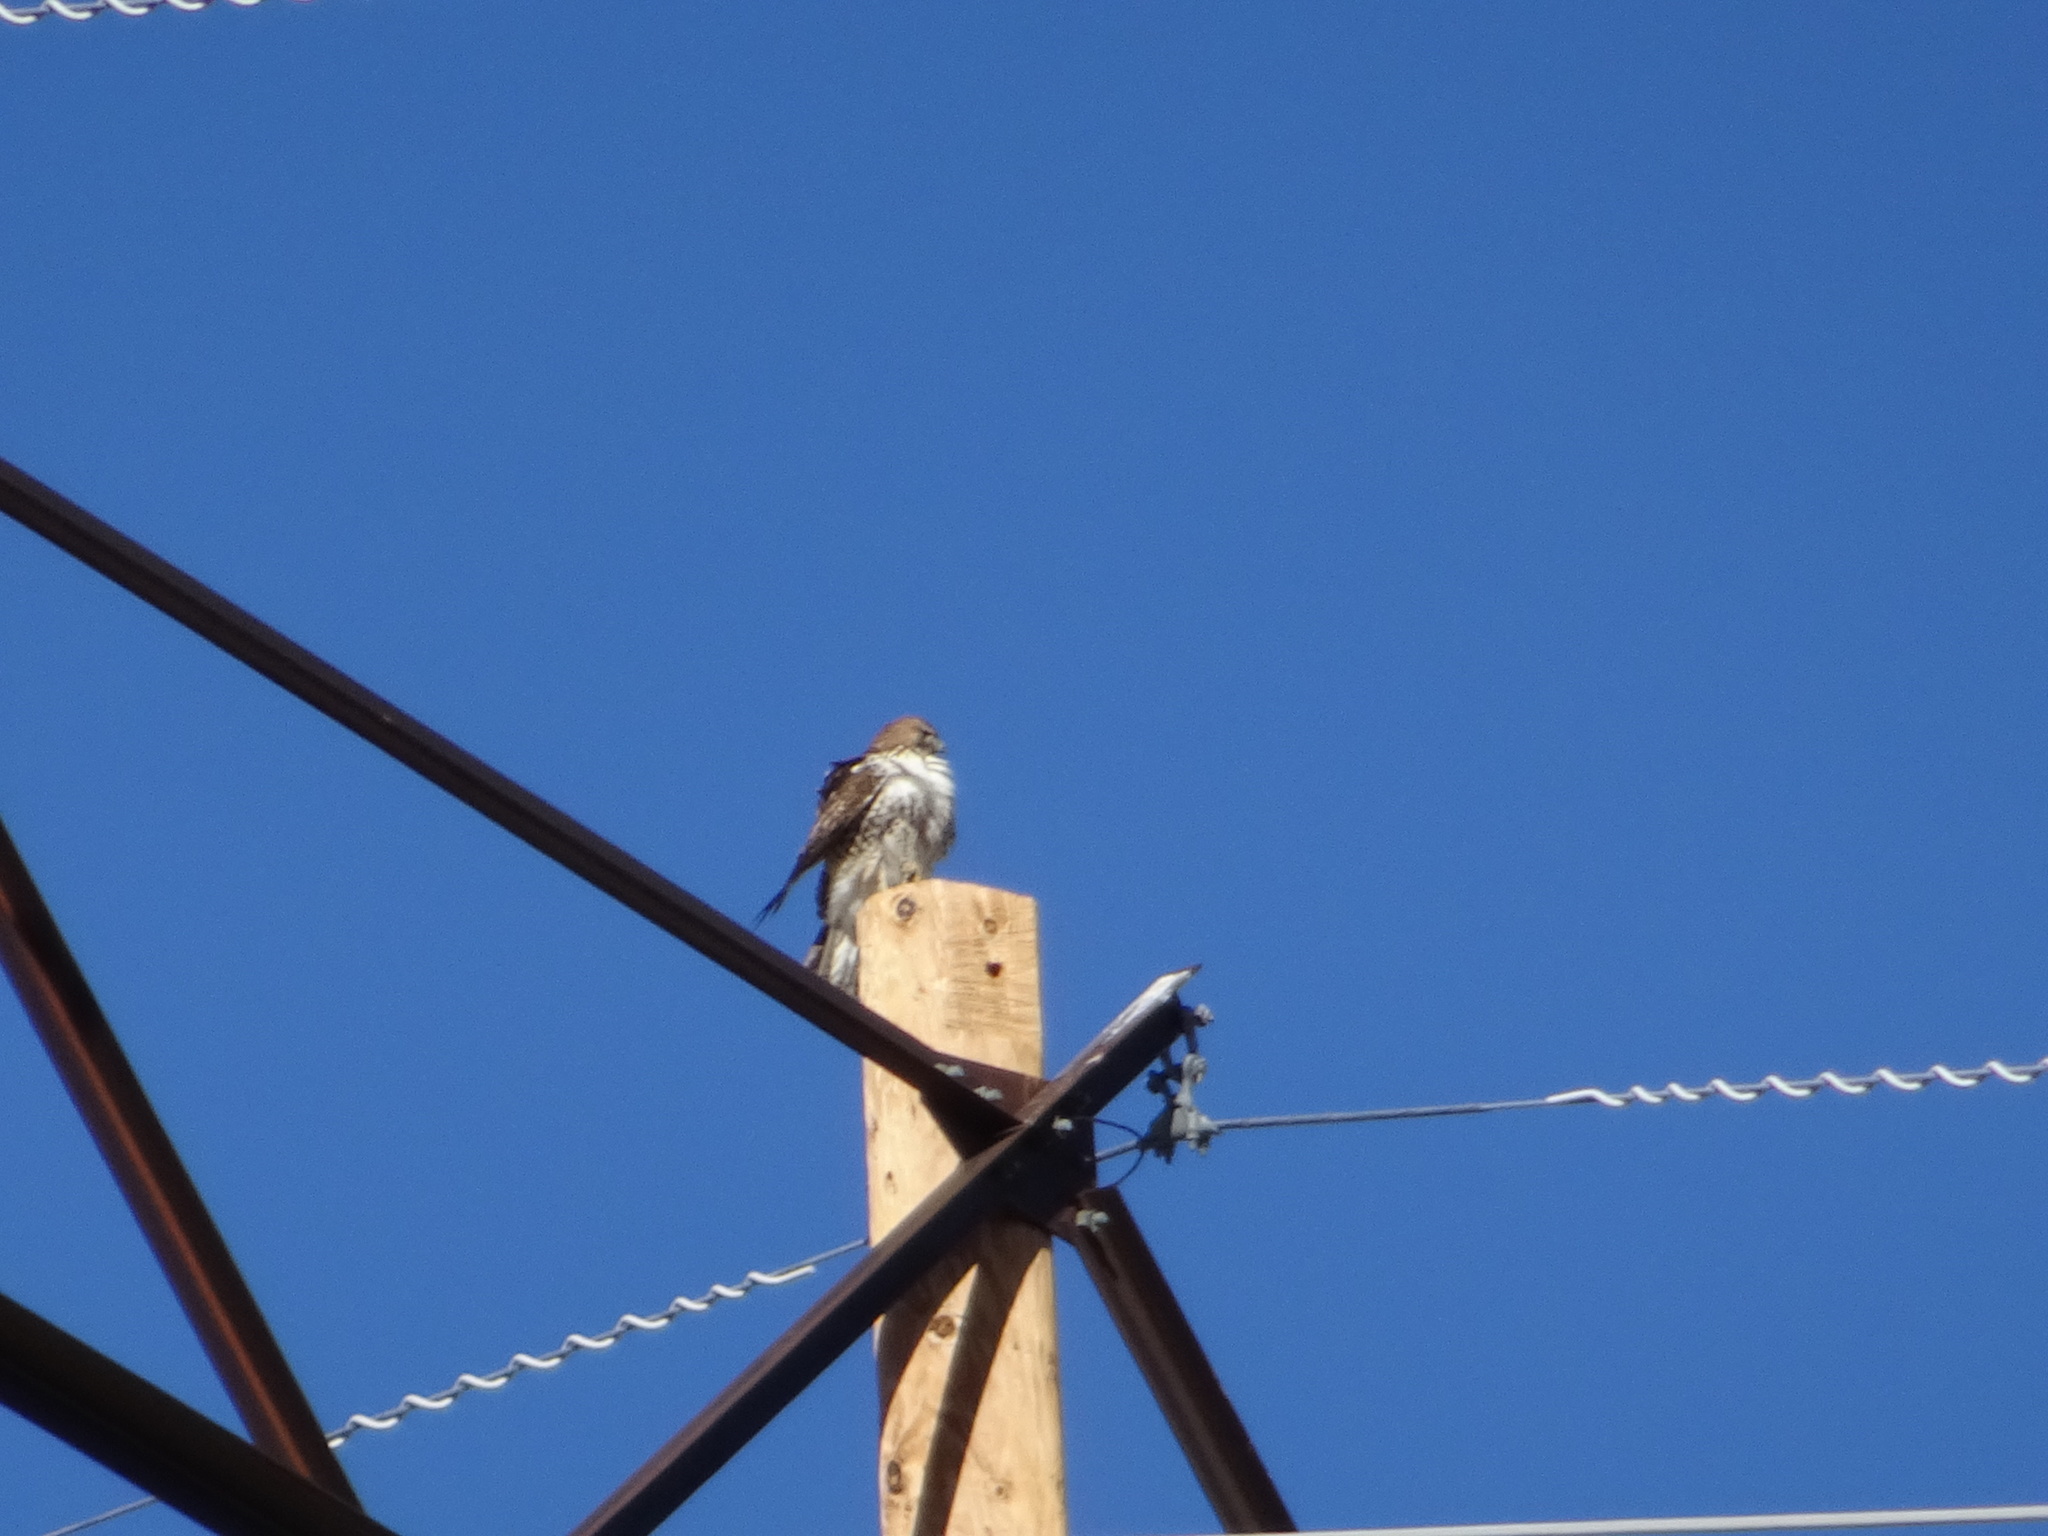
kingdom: Animalia
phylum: Chordata
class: Aves
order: Accipitriformes
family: Accipitridae
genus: Buteo
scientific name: Buteo jamaicensis
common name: Red-tailed hawk
